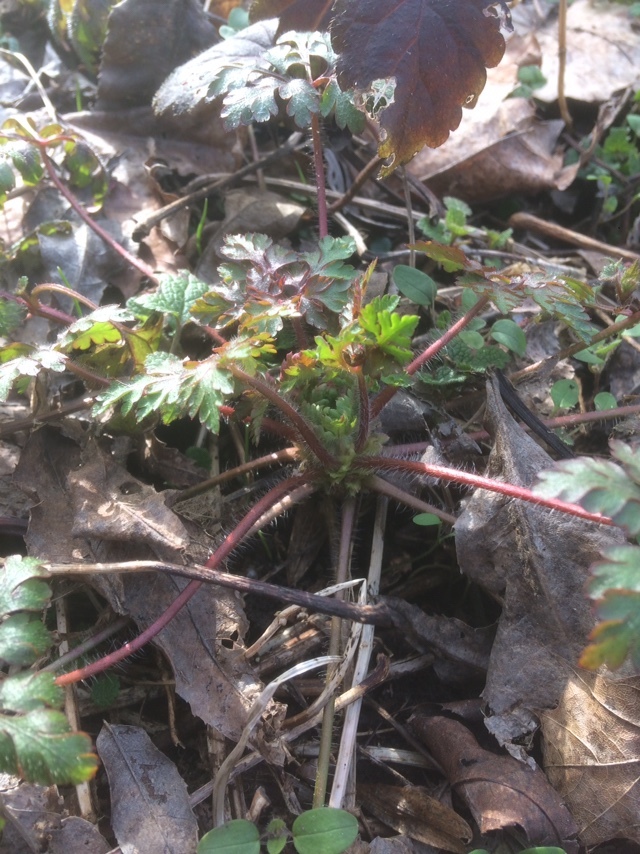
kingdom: Plantae
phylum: Tracheophyta
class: Magnoliopsida
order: Geraniales
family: Geraniaceae
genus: Geranium
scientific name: Geranium robertianum
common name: Herb-robert
